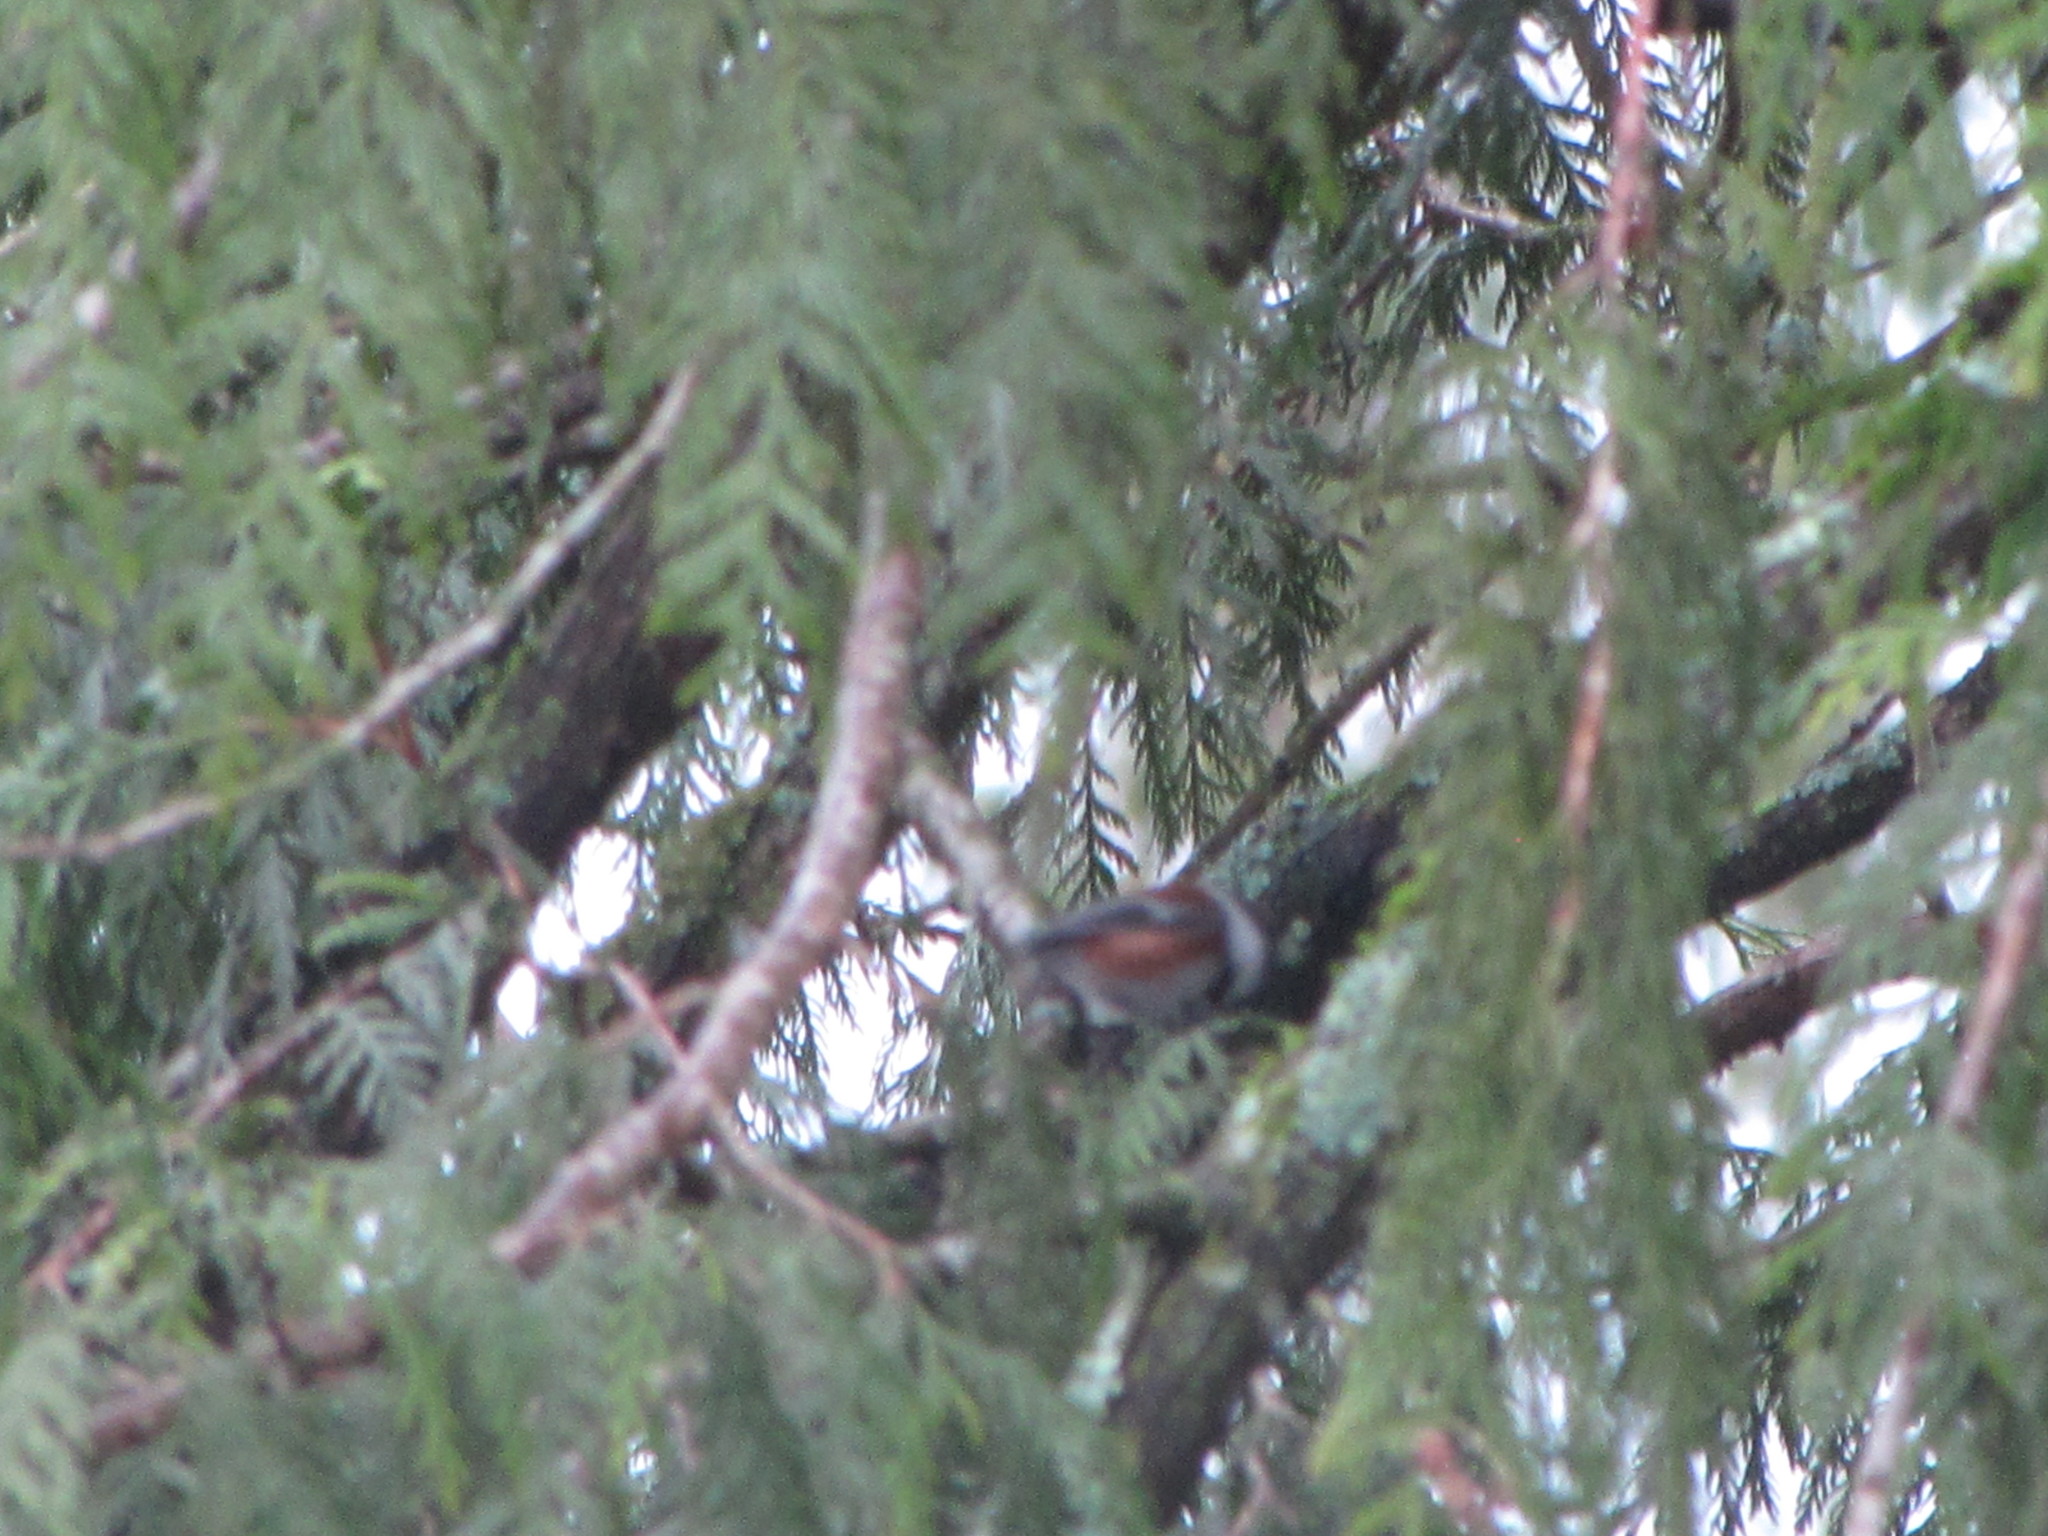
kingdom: Animalia
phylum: Chordata
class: Aves
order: Passeriformes
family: Paridae
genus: Poecile
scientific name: Poecile rufescens
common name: Chestnut-backed chickadee
